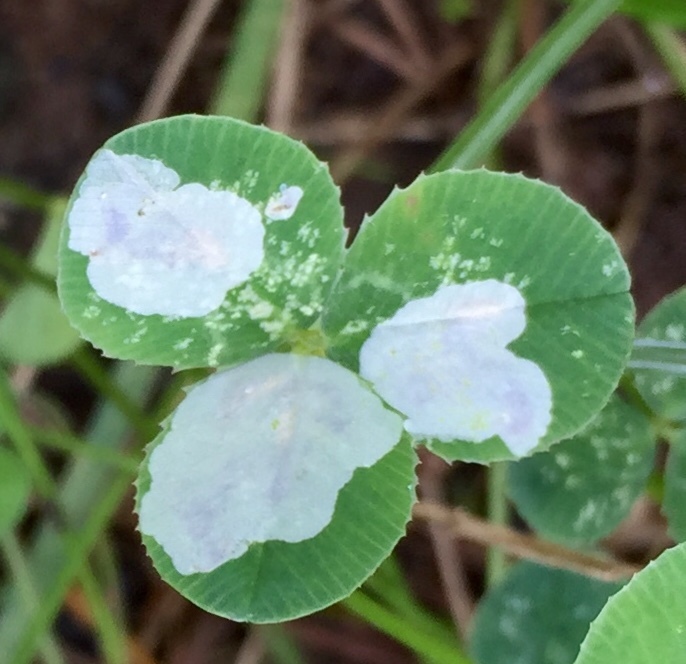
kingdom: Animalia
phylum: Arthropoda
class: Insecta
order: Lepidoptera
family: Gracillariidae
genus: Porphyrosela
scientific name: Porphyrosela minuta
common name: Leaf miner moth
